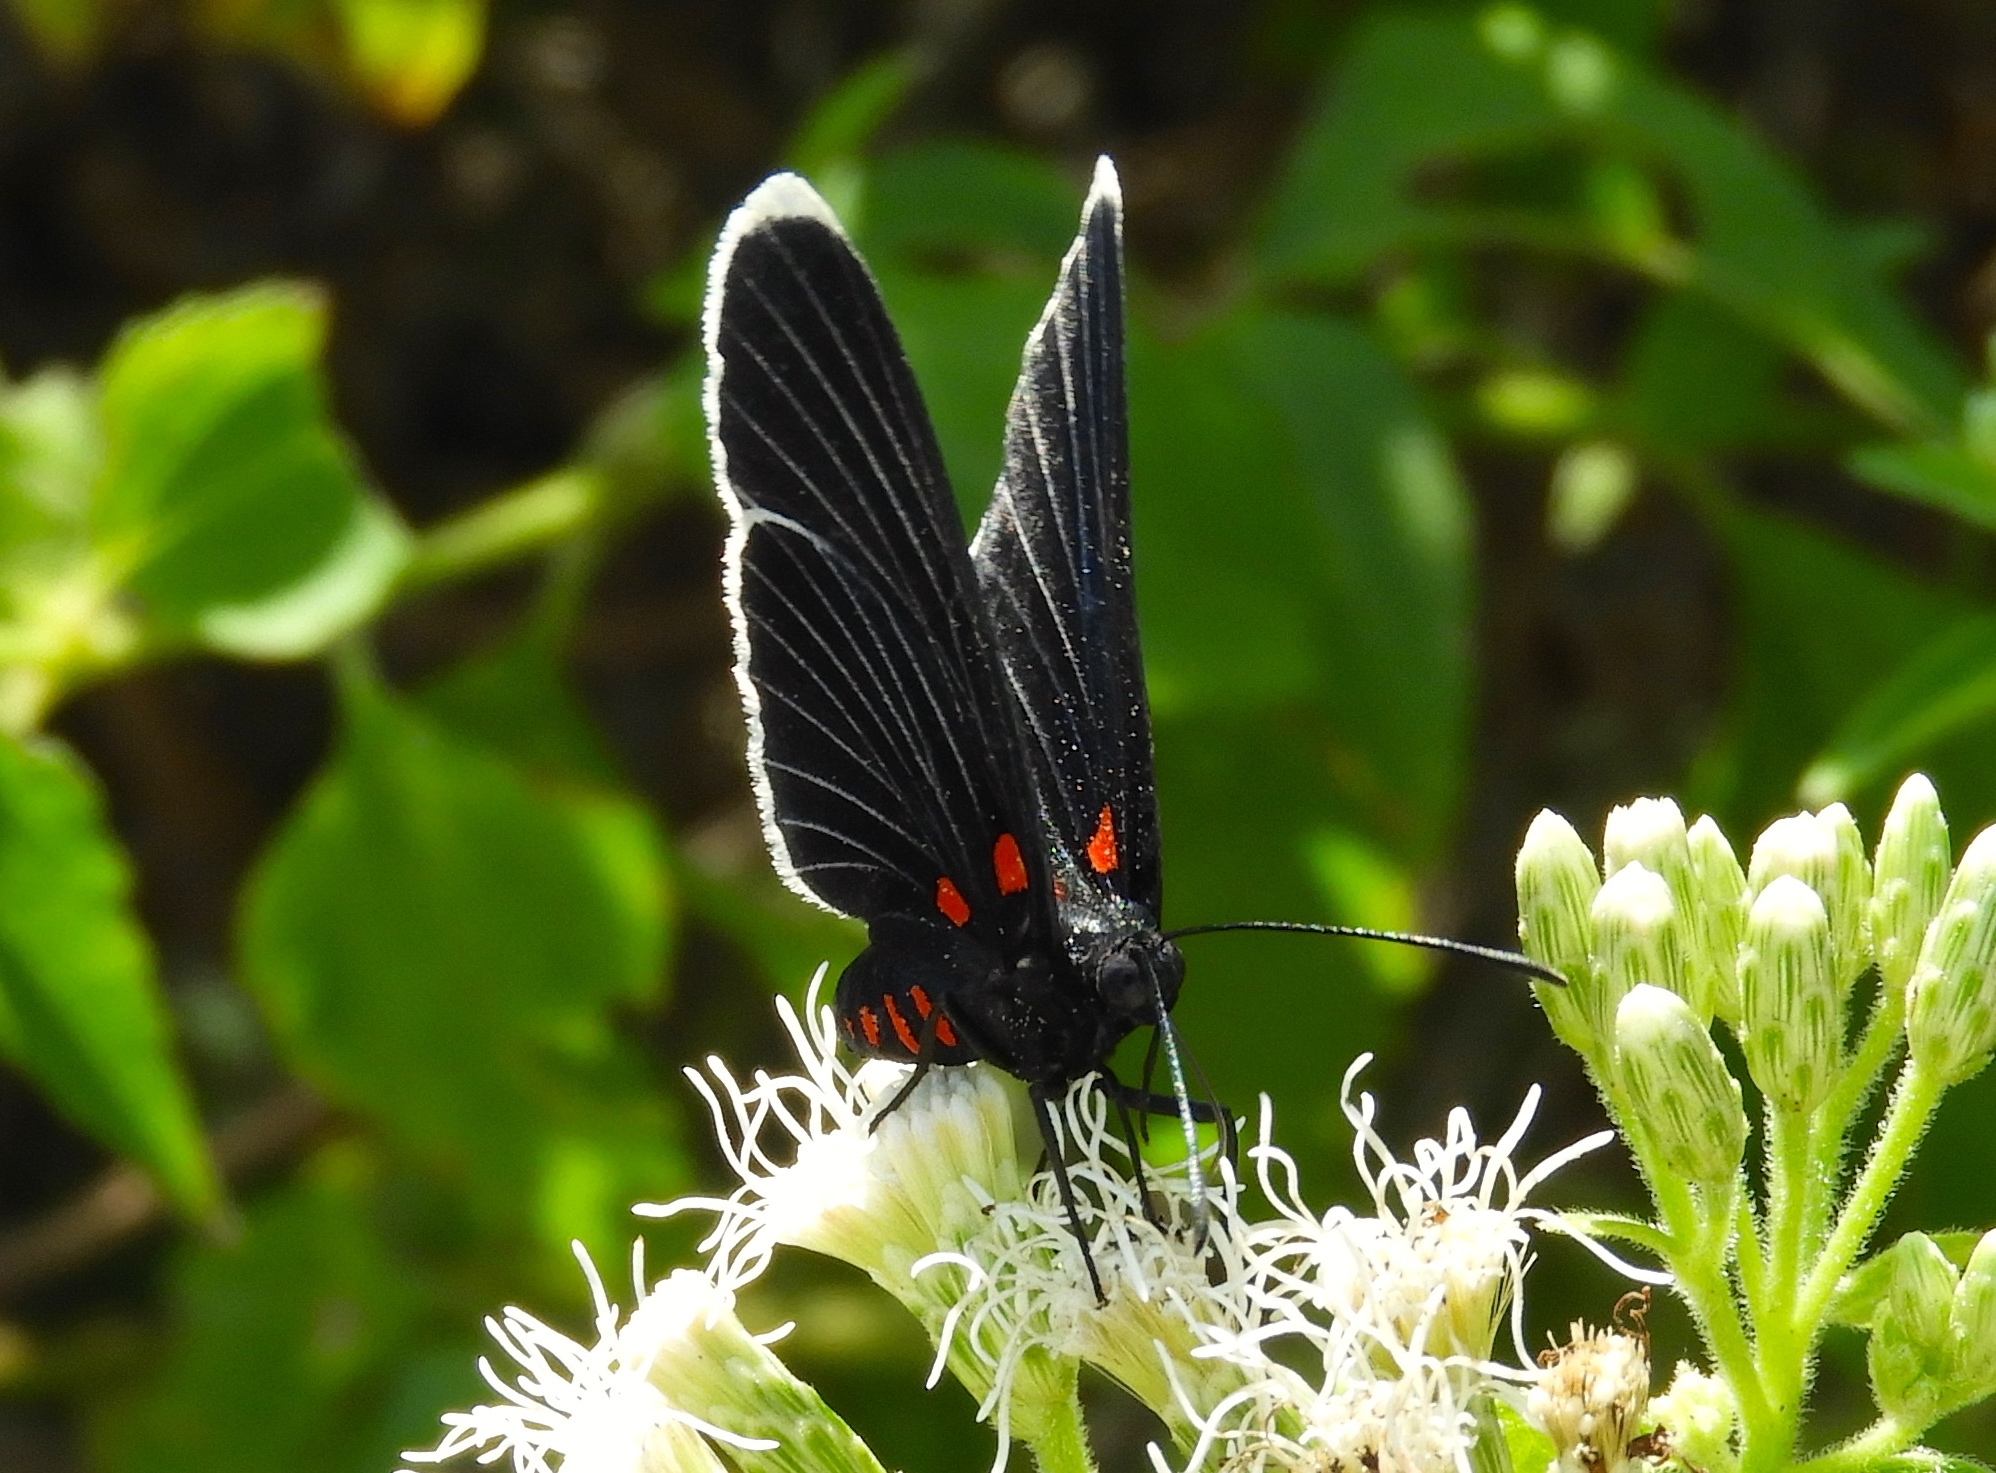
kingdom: Animalia
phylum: Arthropoda
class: Insecta
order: Lepidoptera
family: Lycaenidae
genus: Melanis
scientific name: Melanis
